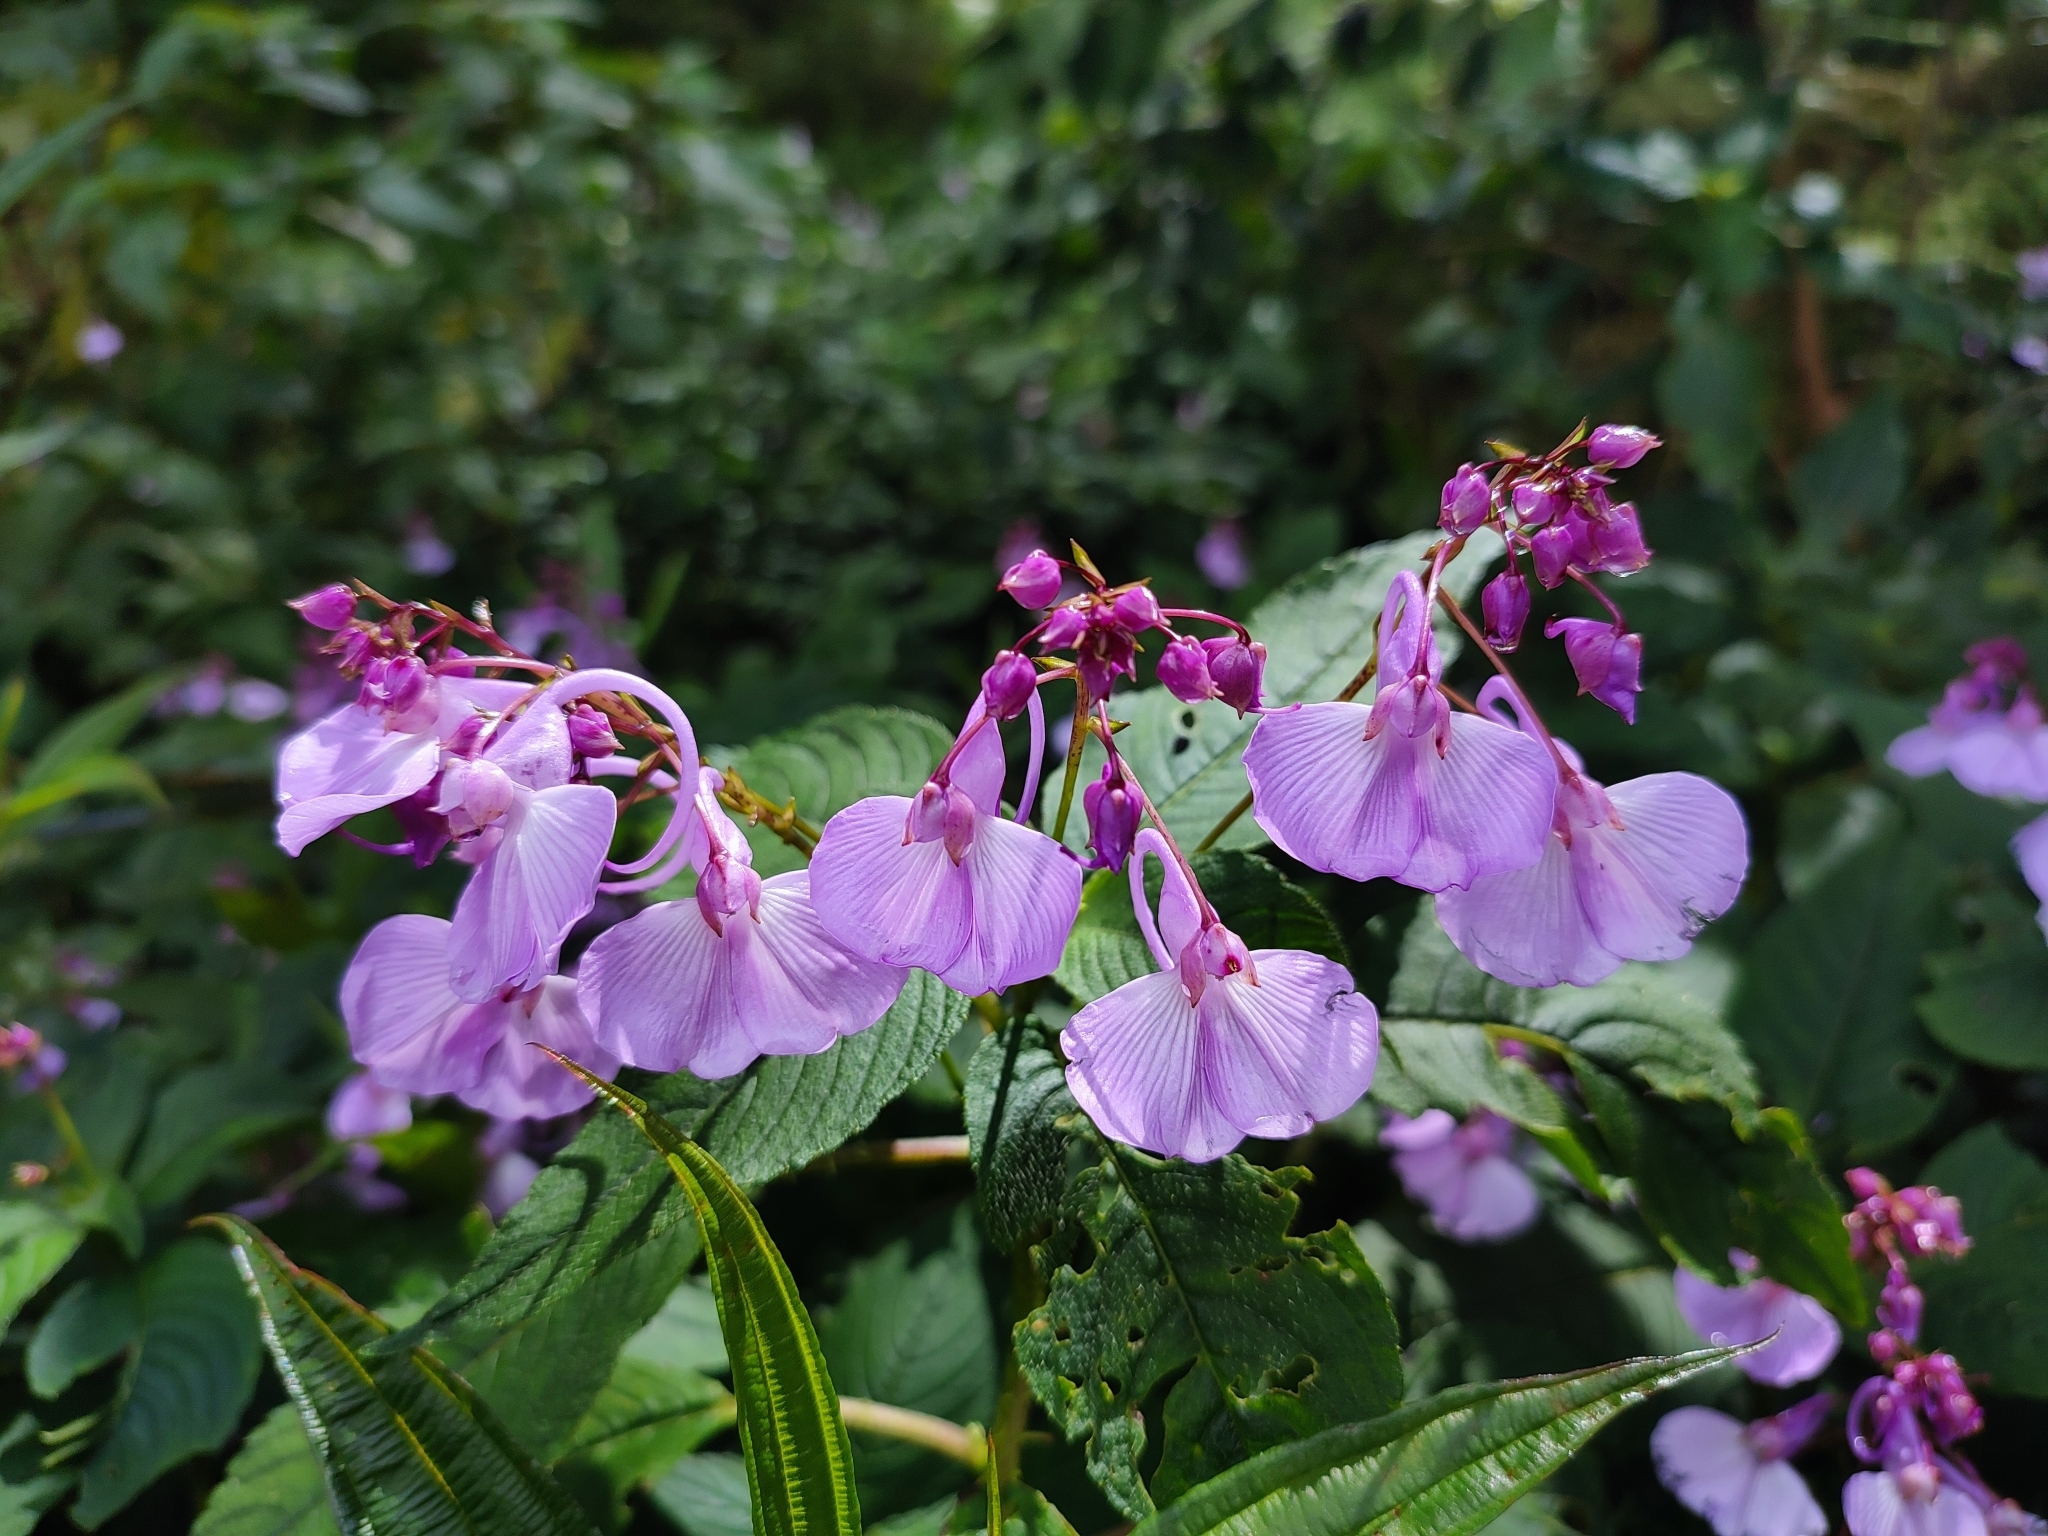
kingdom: Plantae
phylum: Tracheophyta
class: Magnoliopsida
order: Ericales
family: Balsaminaceae
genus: Impatiens
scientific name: Impatiens maculata
